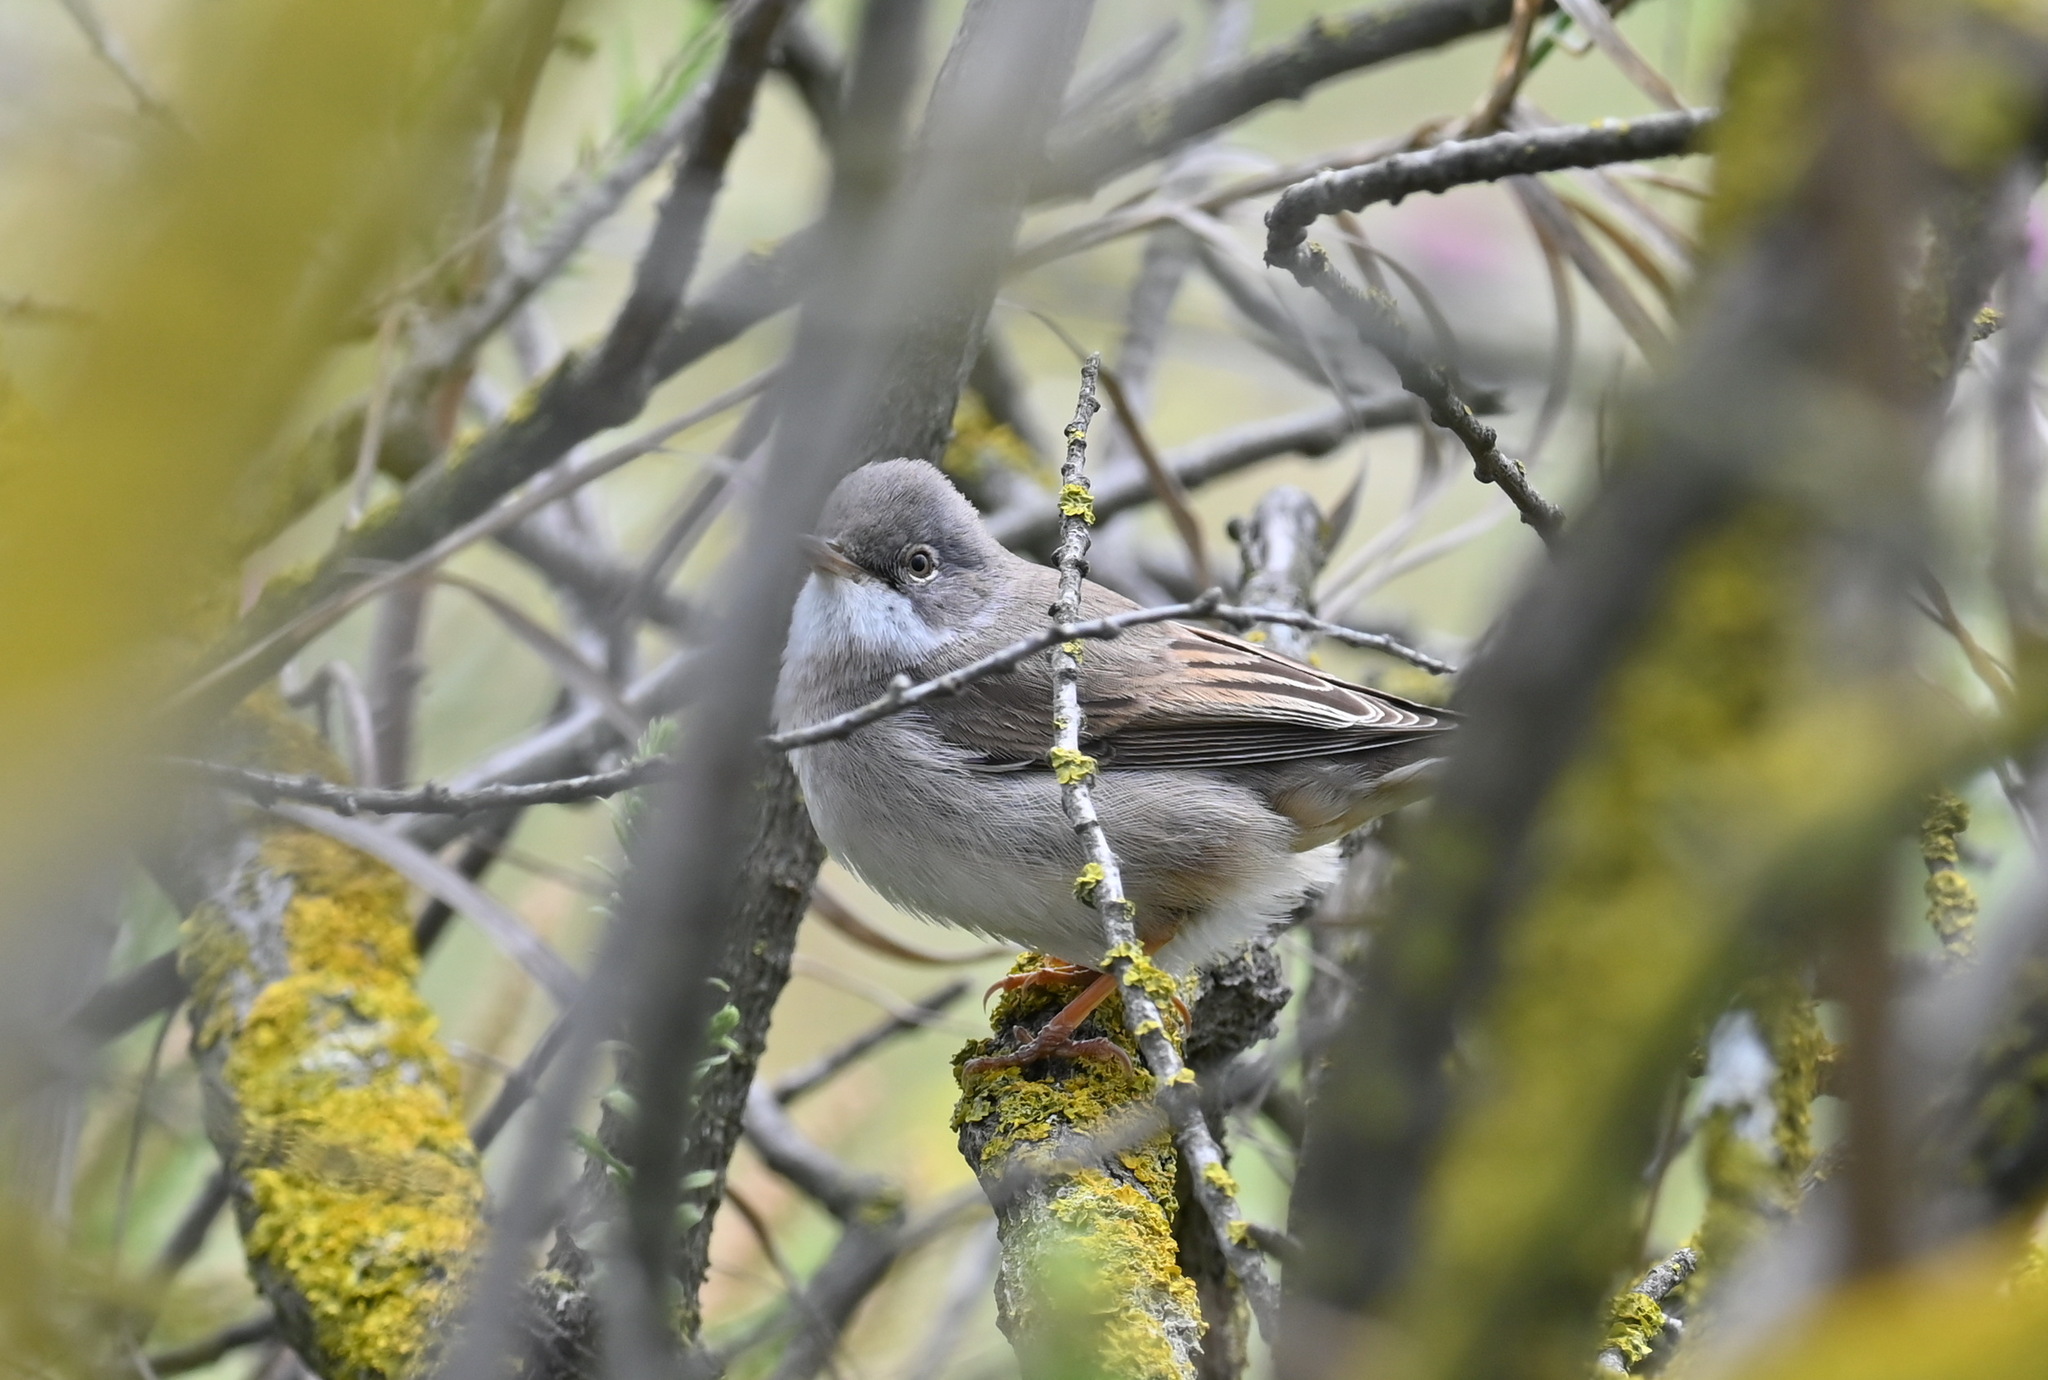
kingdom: Animalia
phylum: Chordata
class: Aves
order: Passeriformes
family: Sylviidae
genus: Sylvia
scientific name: Sylvia communis
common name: Common whitethroat
